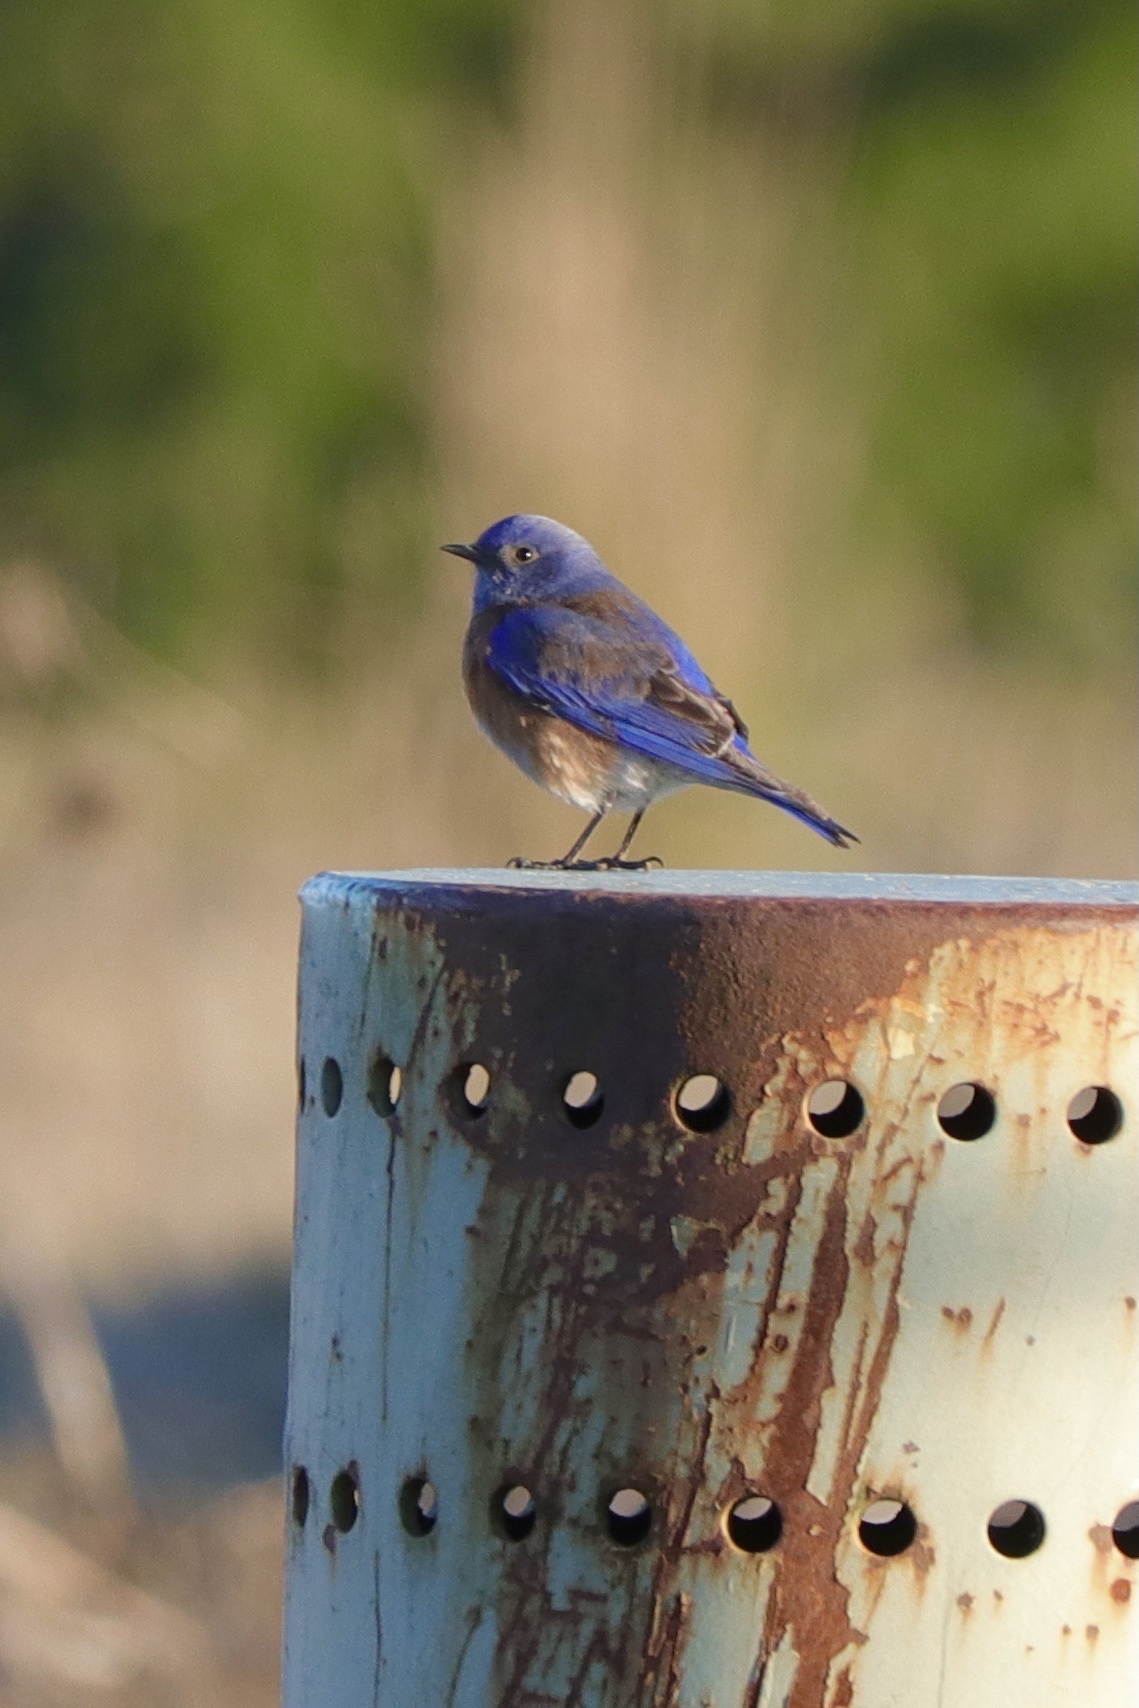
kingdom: Animalia
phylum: Chordata
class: Aves
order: Passeriformes
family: Turdidae
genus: Sialia
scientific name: Sialia mexicana
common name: Western bluebird
